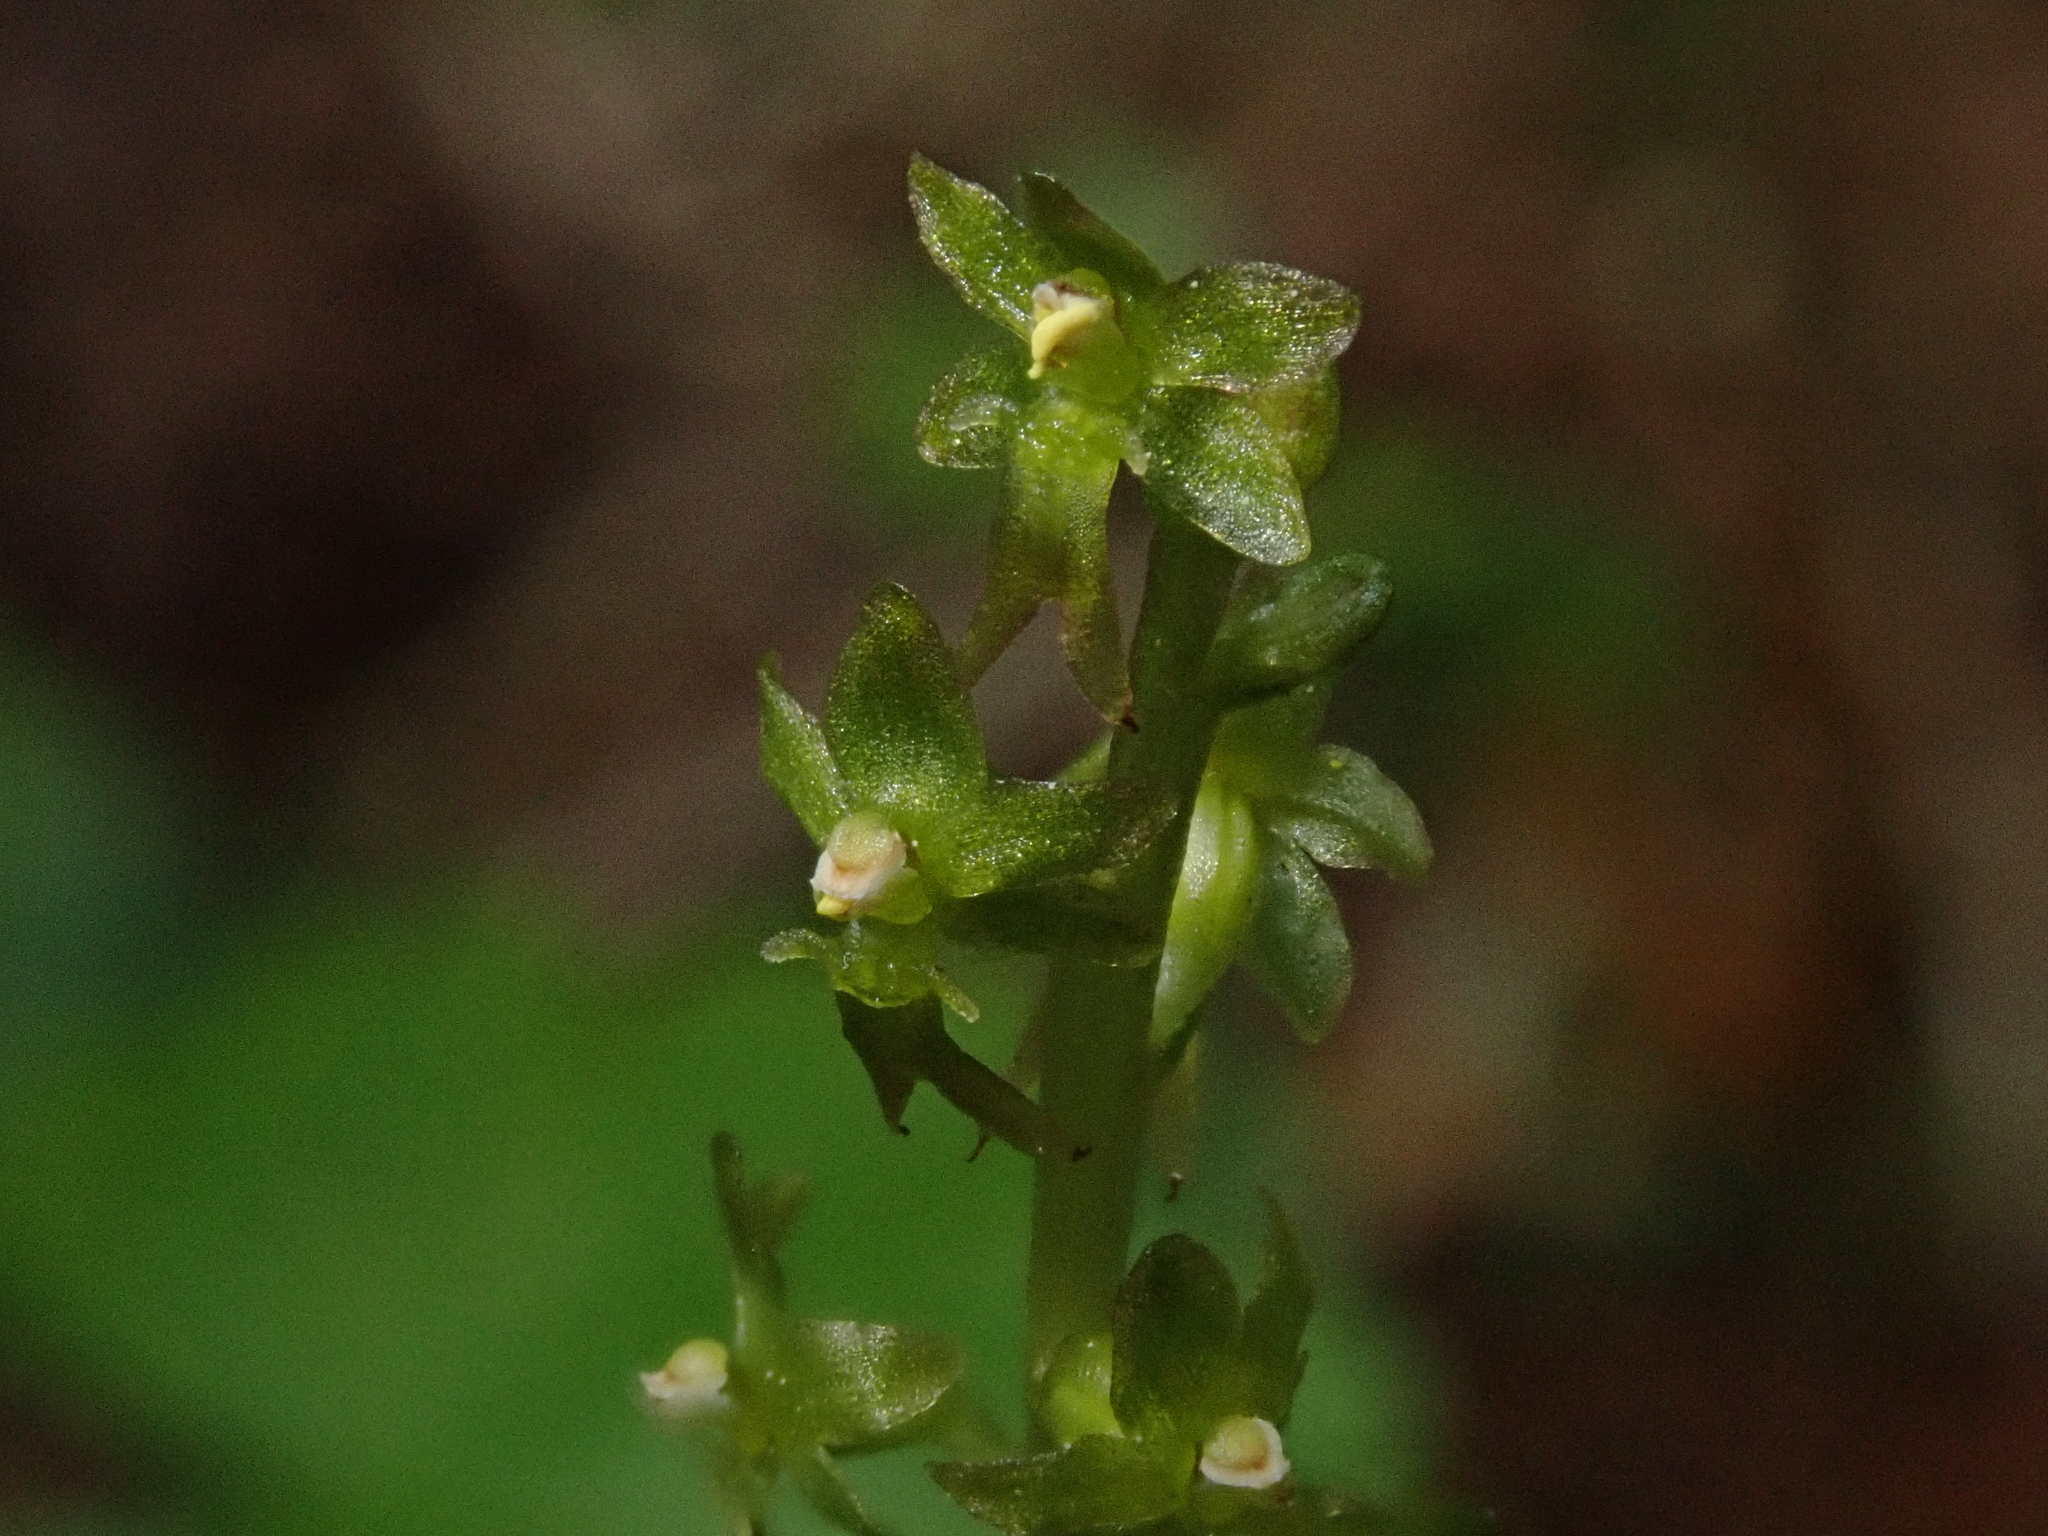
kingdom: Plantae
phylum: Tracheophyta
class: Liliopsida
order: Asparagales
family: Orchidaceae
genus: Neottia
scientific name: Neottia cordata
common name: Lesser twayblade
